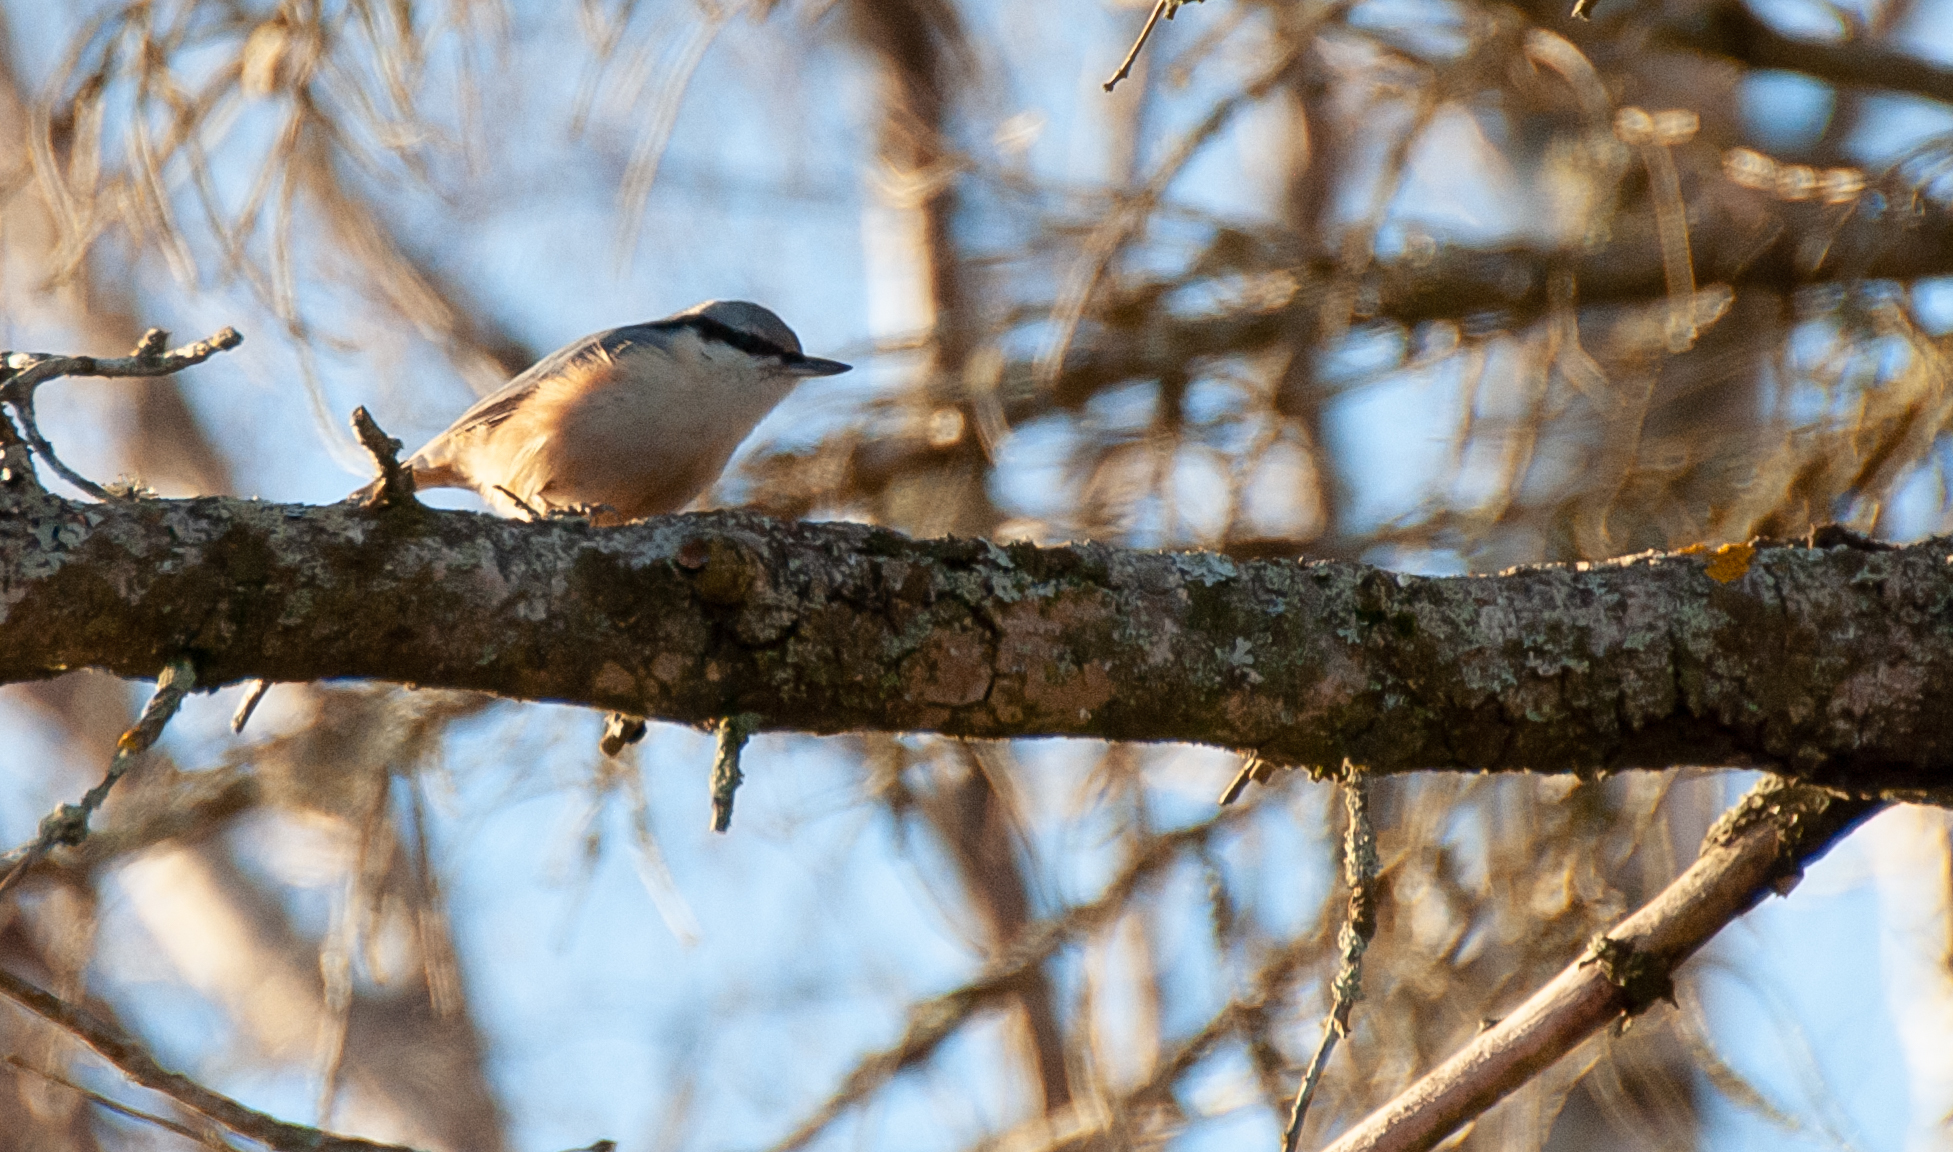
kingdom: Animalia
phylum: Chordata
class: Aves
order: Passeriformes
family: Sittidae
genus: Sitta
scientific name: Sitta europaea
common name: Eurasian nuthatch
